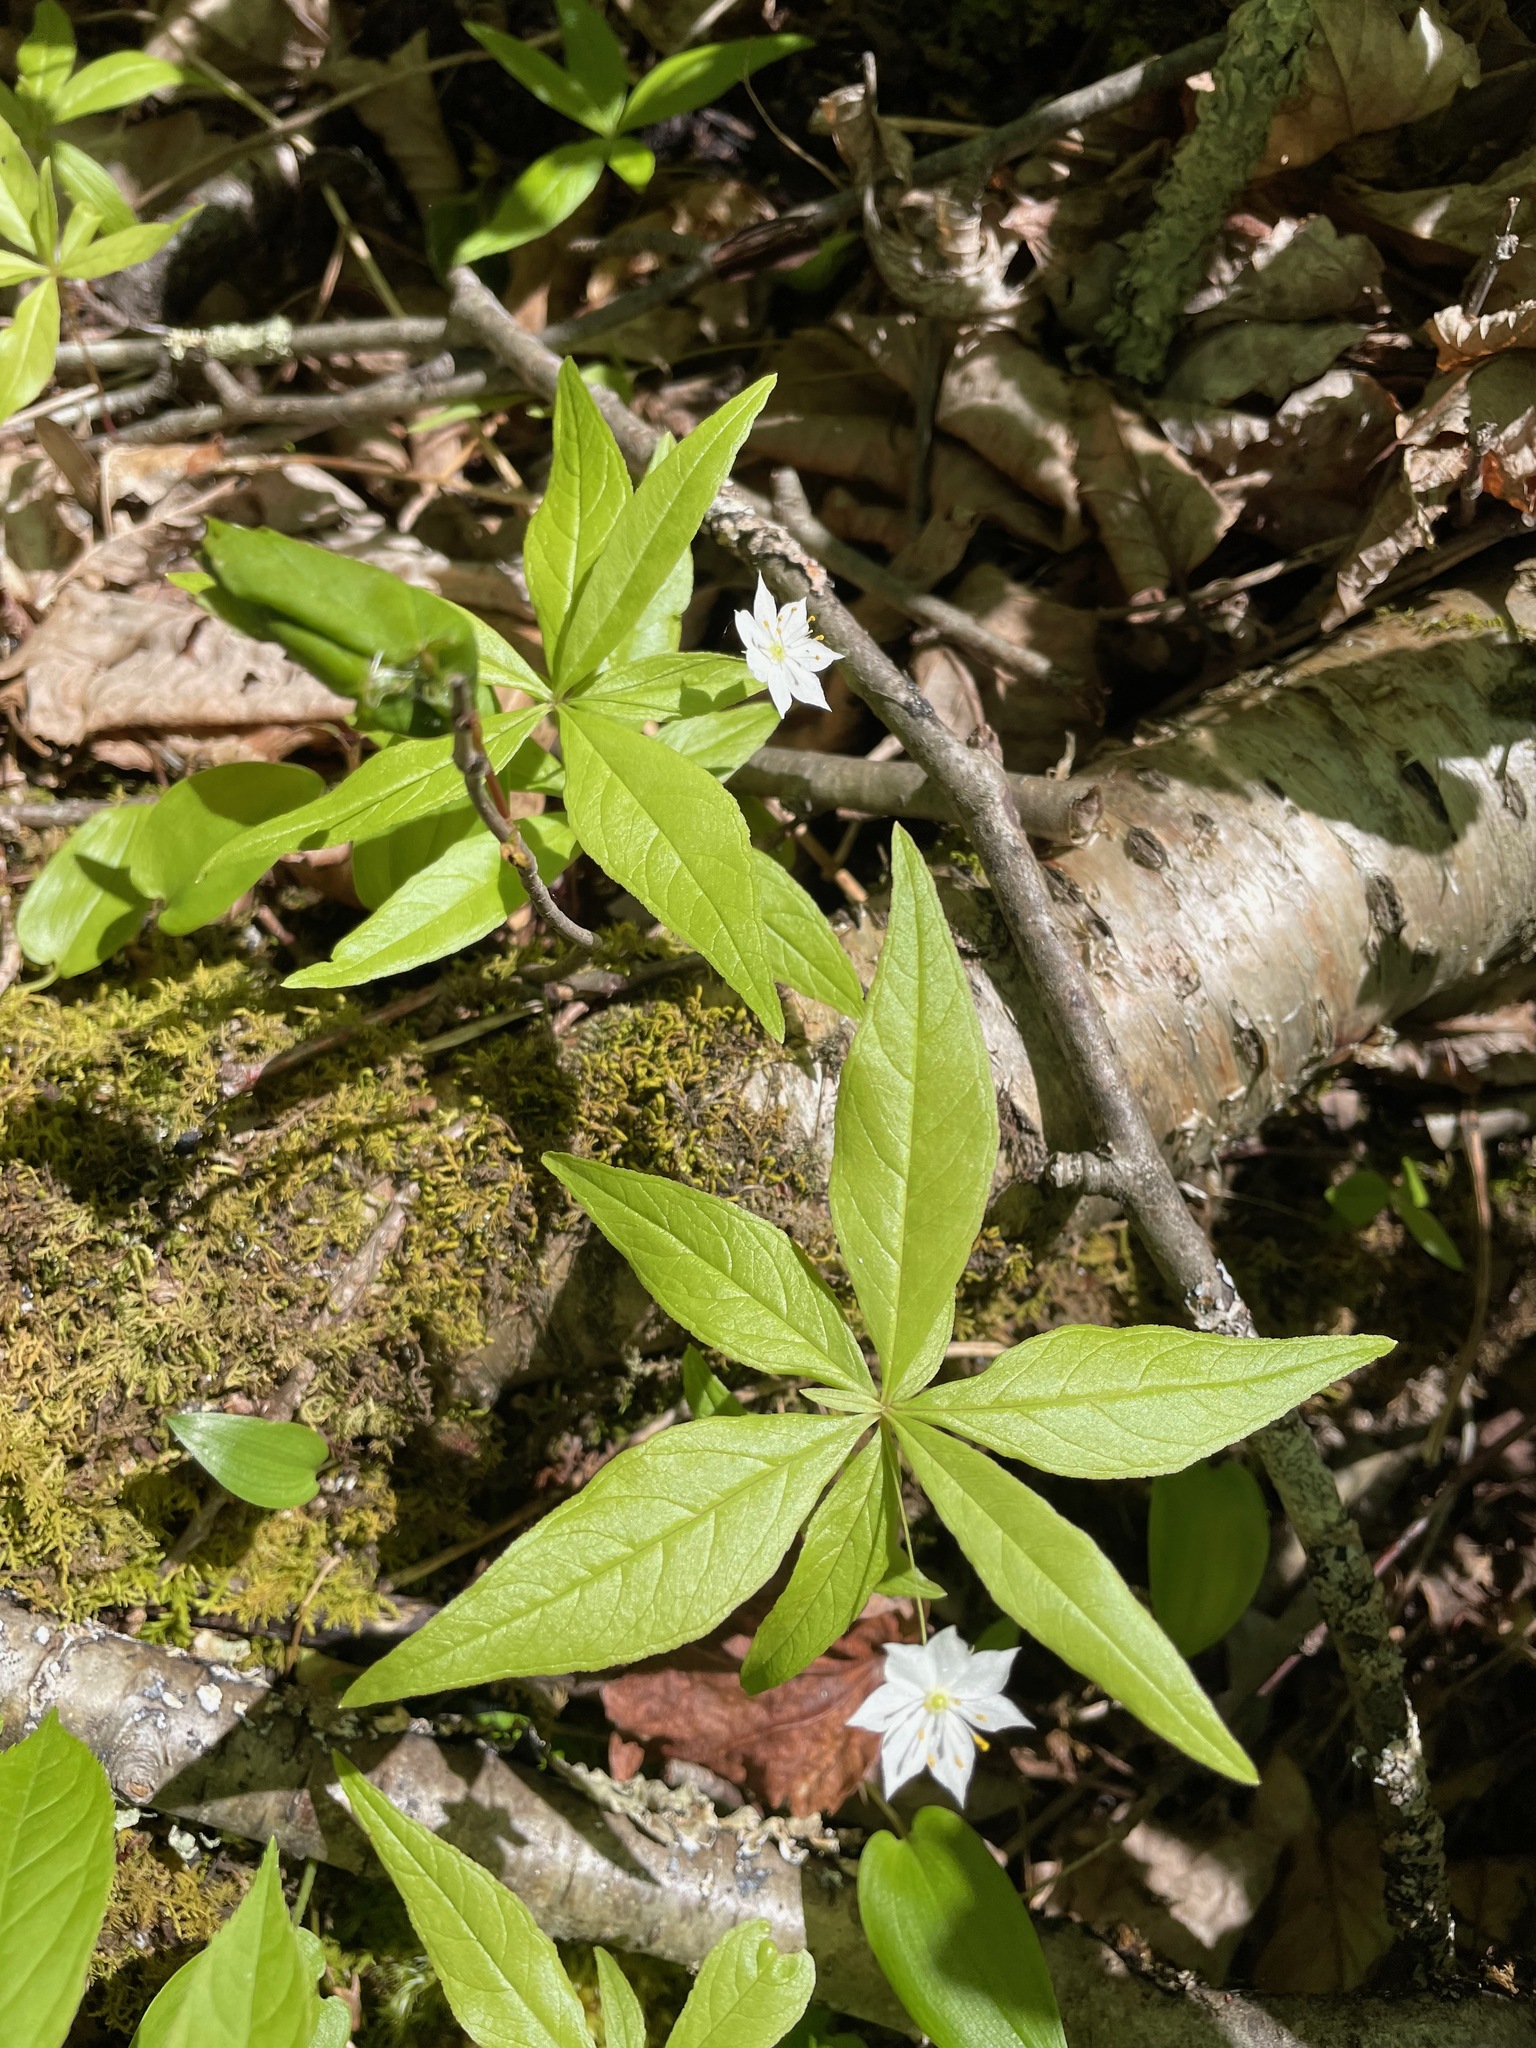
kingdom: Plantae
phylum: Tracheophyta
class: Magnoliopsida
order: Ericales
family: Primulaceae
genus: Lysimachia
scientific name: Lysimachia borealis
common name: American starflower
